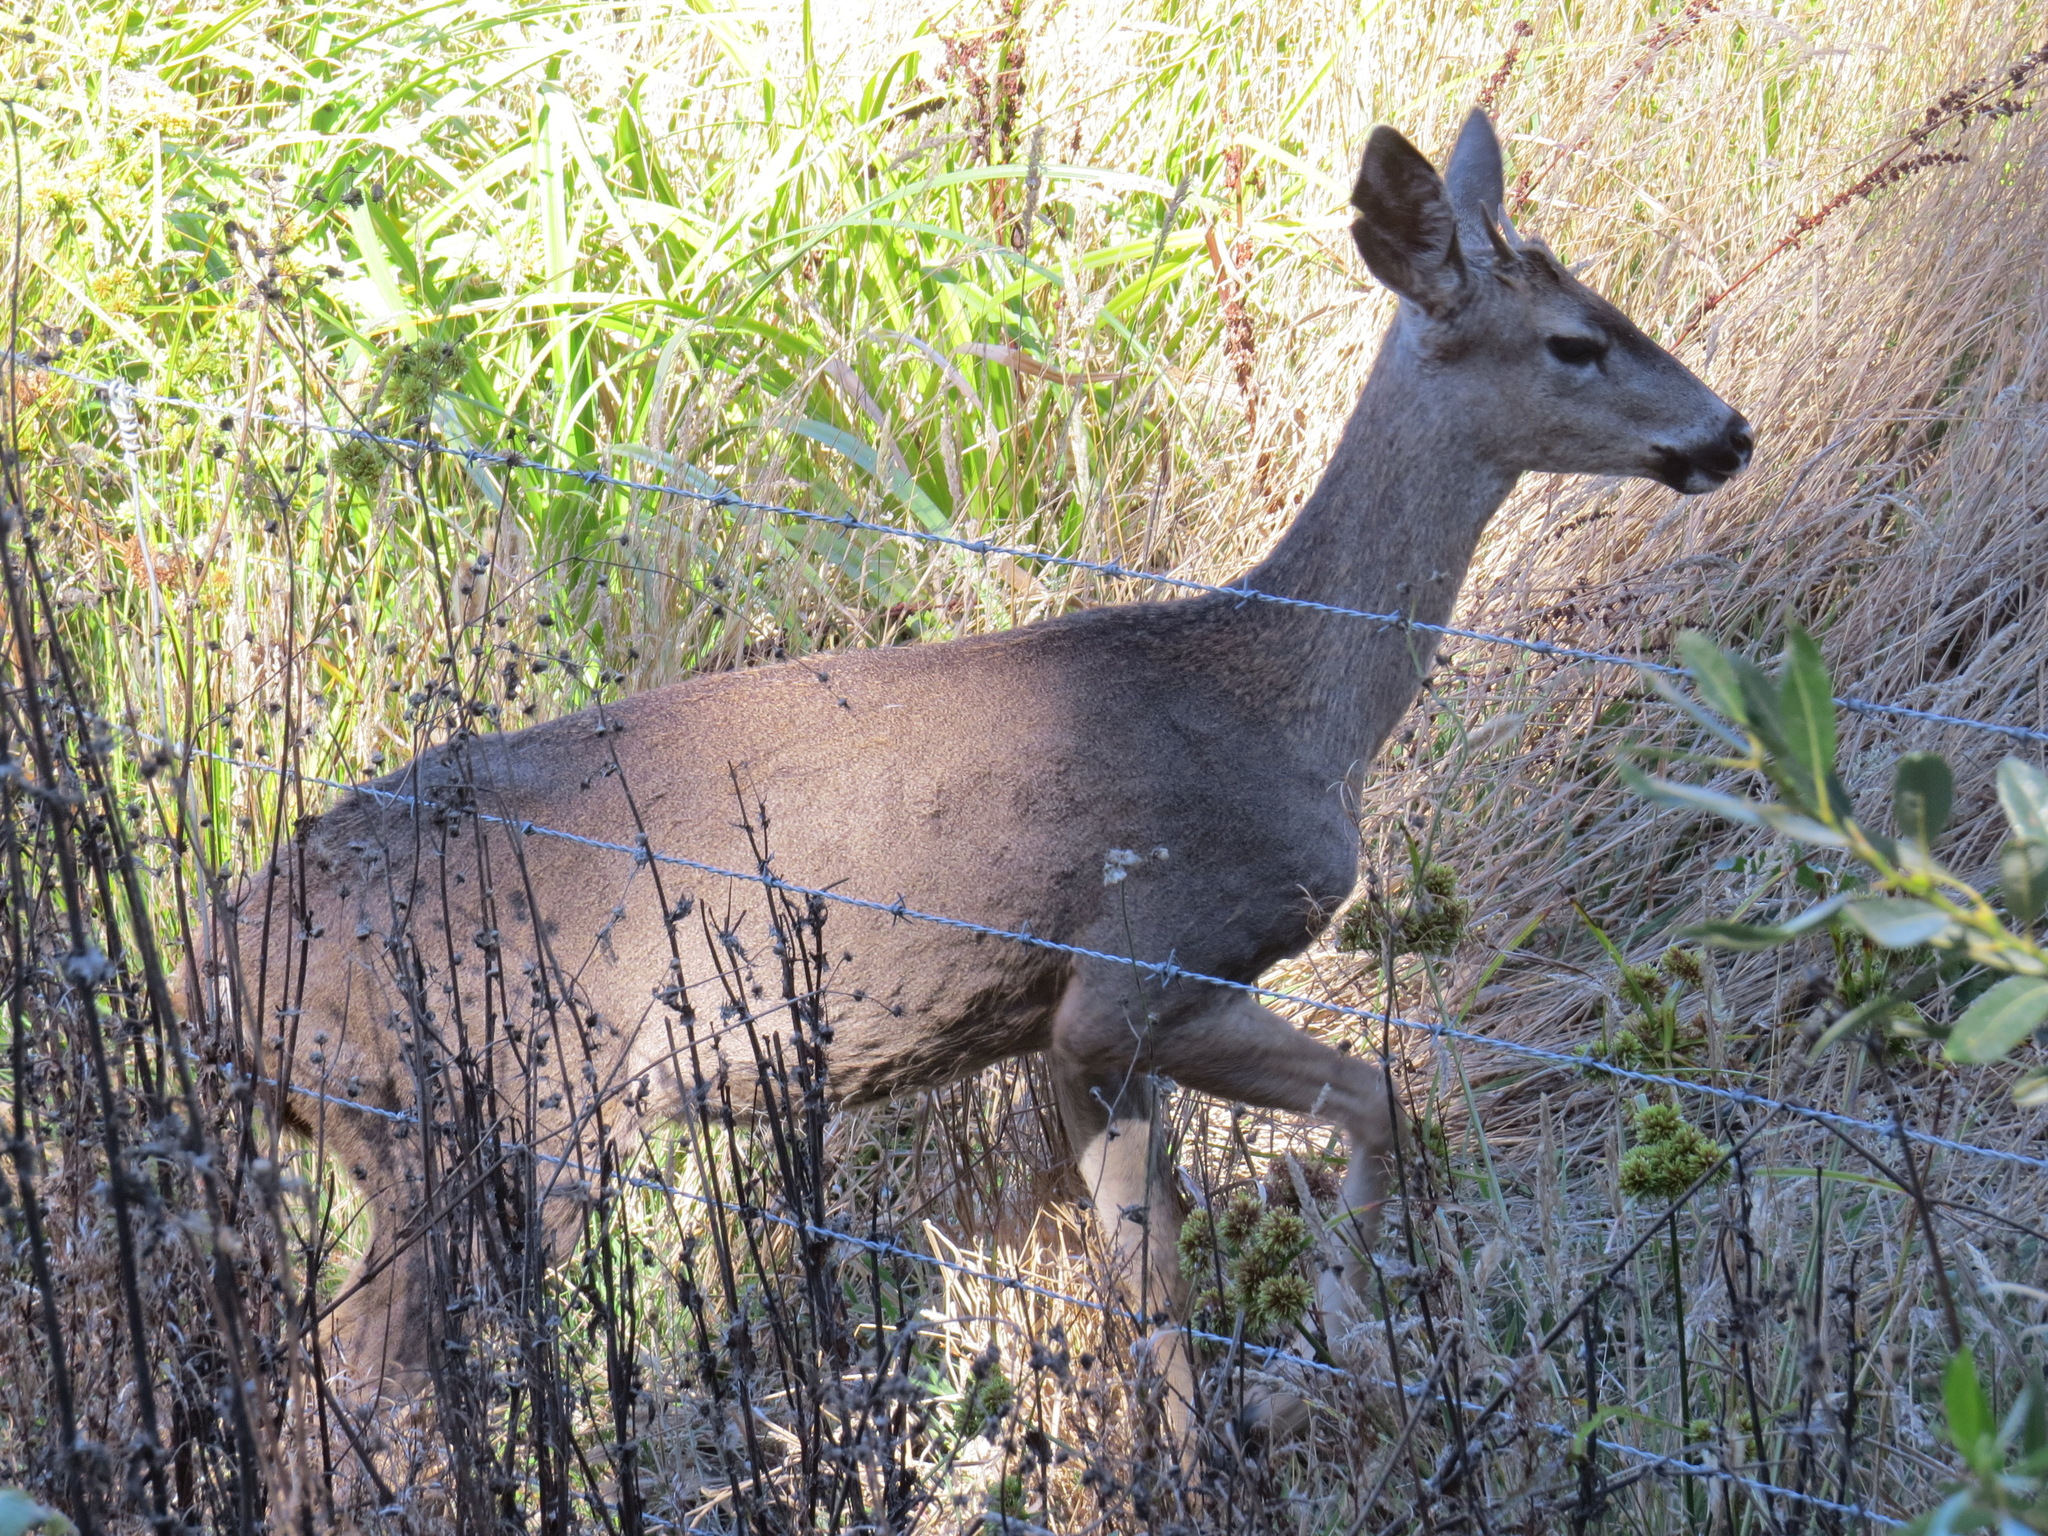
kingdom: Animalia
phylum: Chordata
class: Mammalia
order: Artiodactyla
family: Cervidae
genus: Odocoileus
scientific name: Odocoileus hemionus
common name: Mule deer
